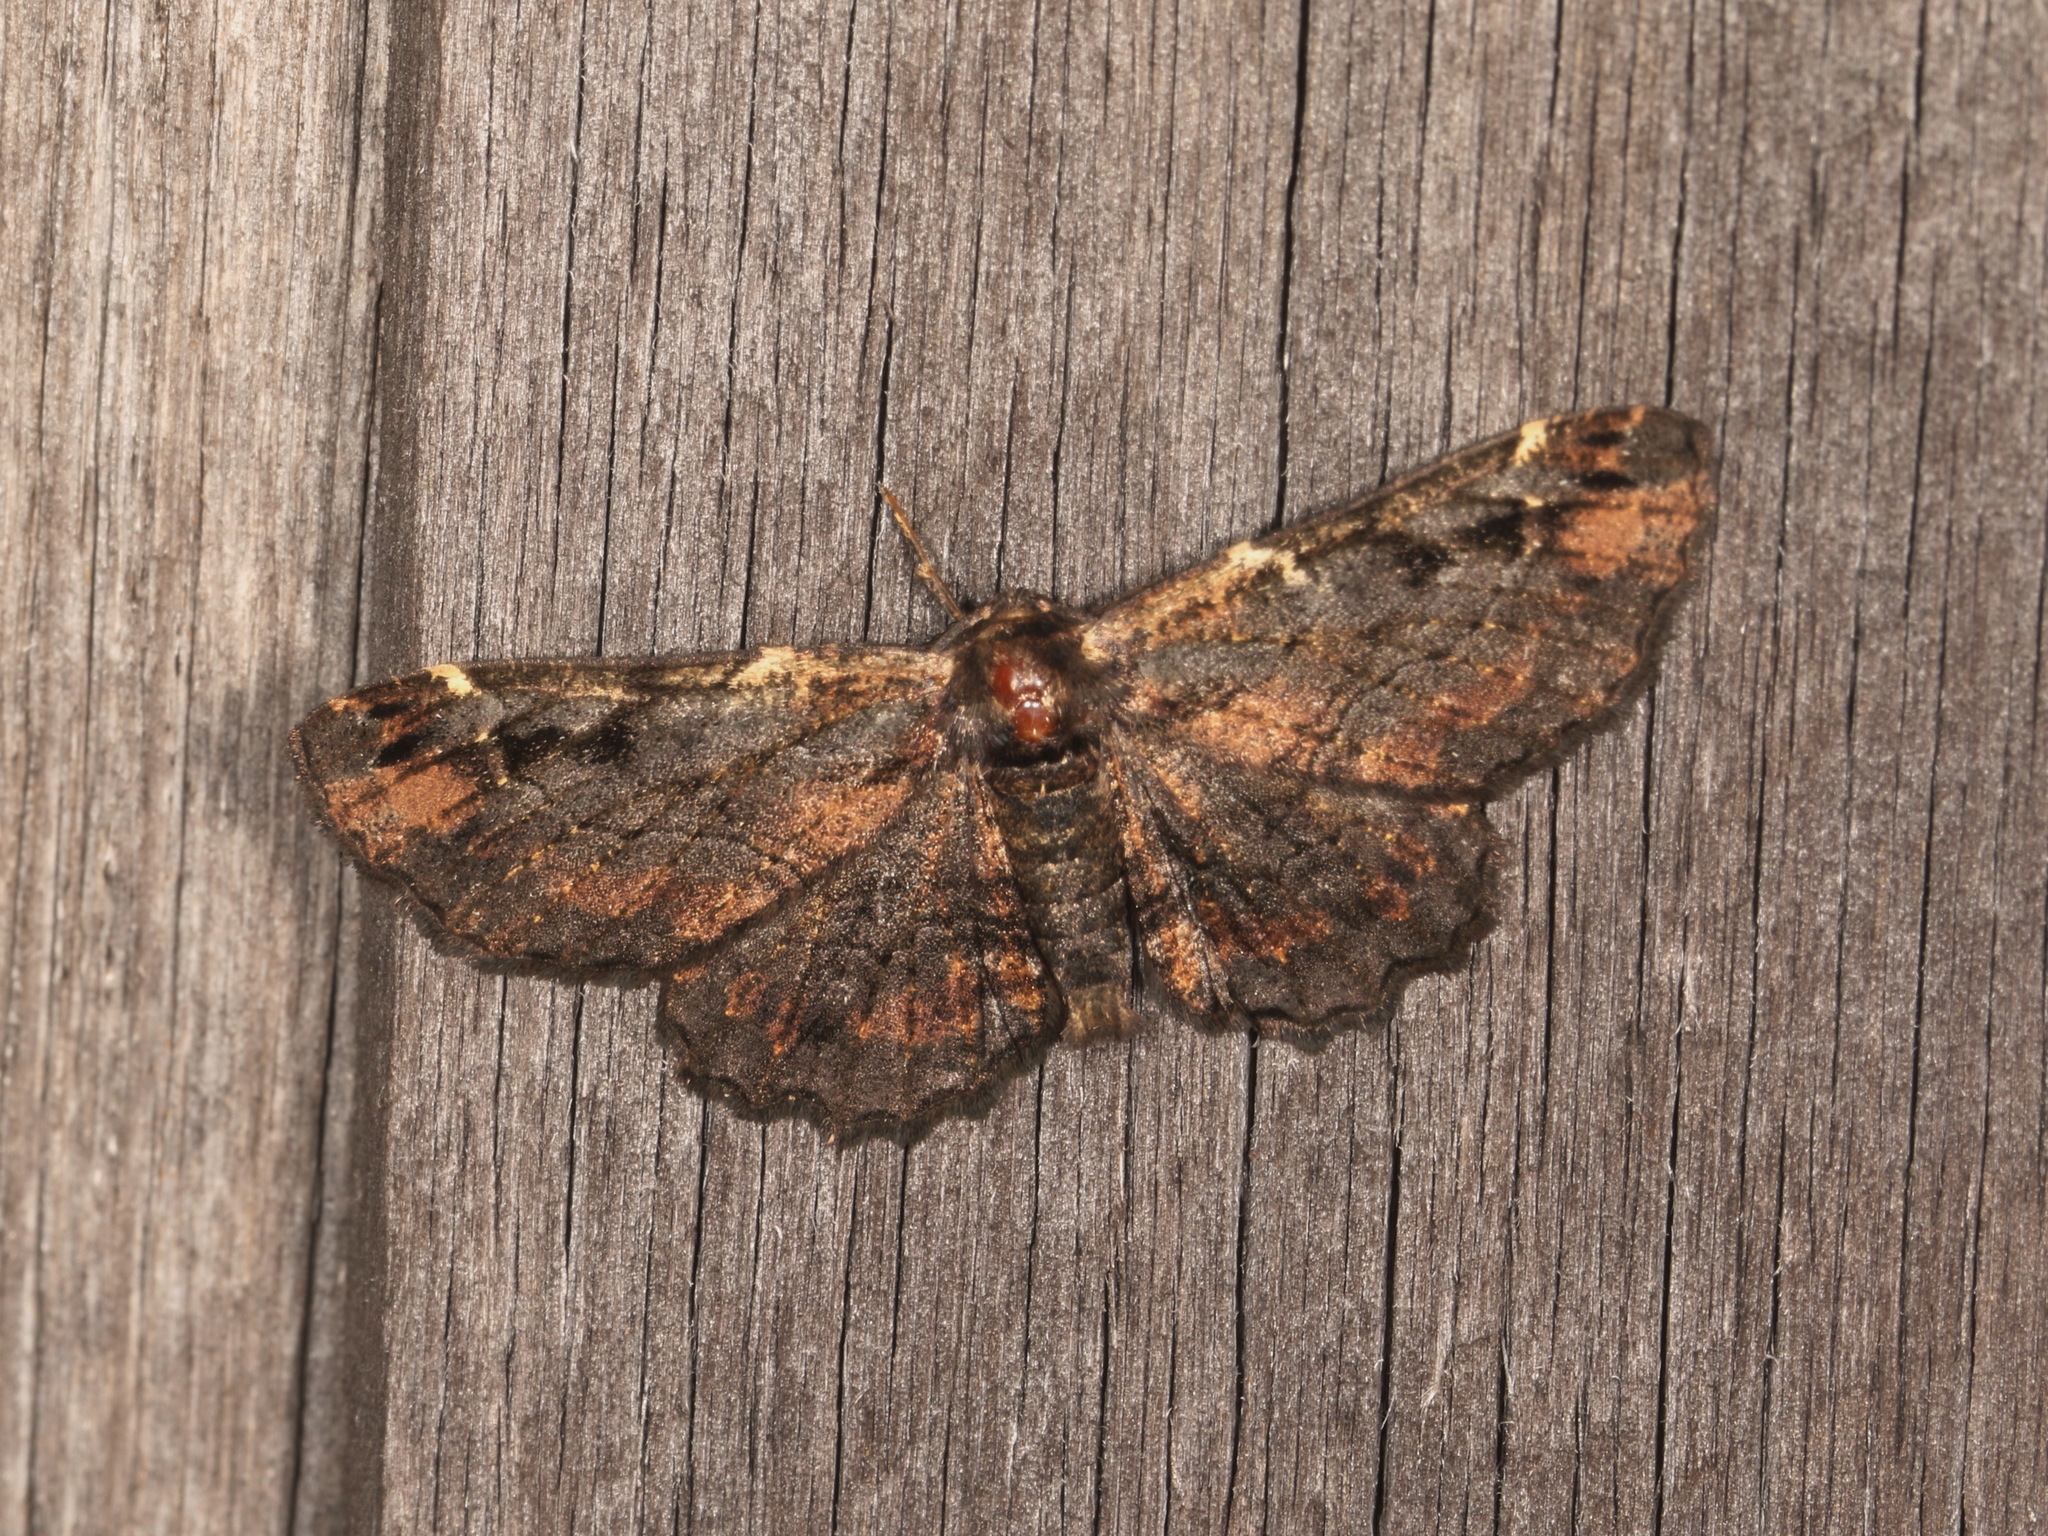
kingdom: Animalia
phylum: Arthropoda
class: Insecta
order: Lepidoptera
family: Geometridae
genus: Pholodes
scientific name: Pholodes sinistraria
